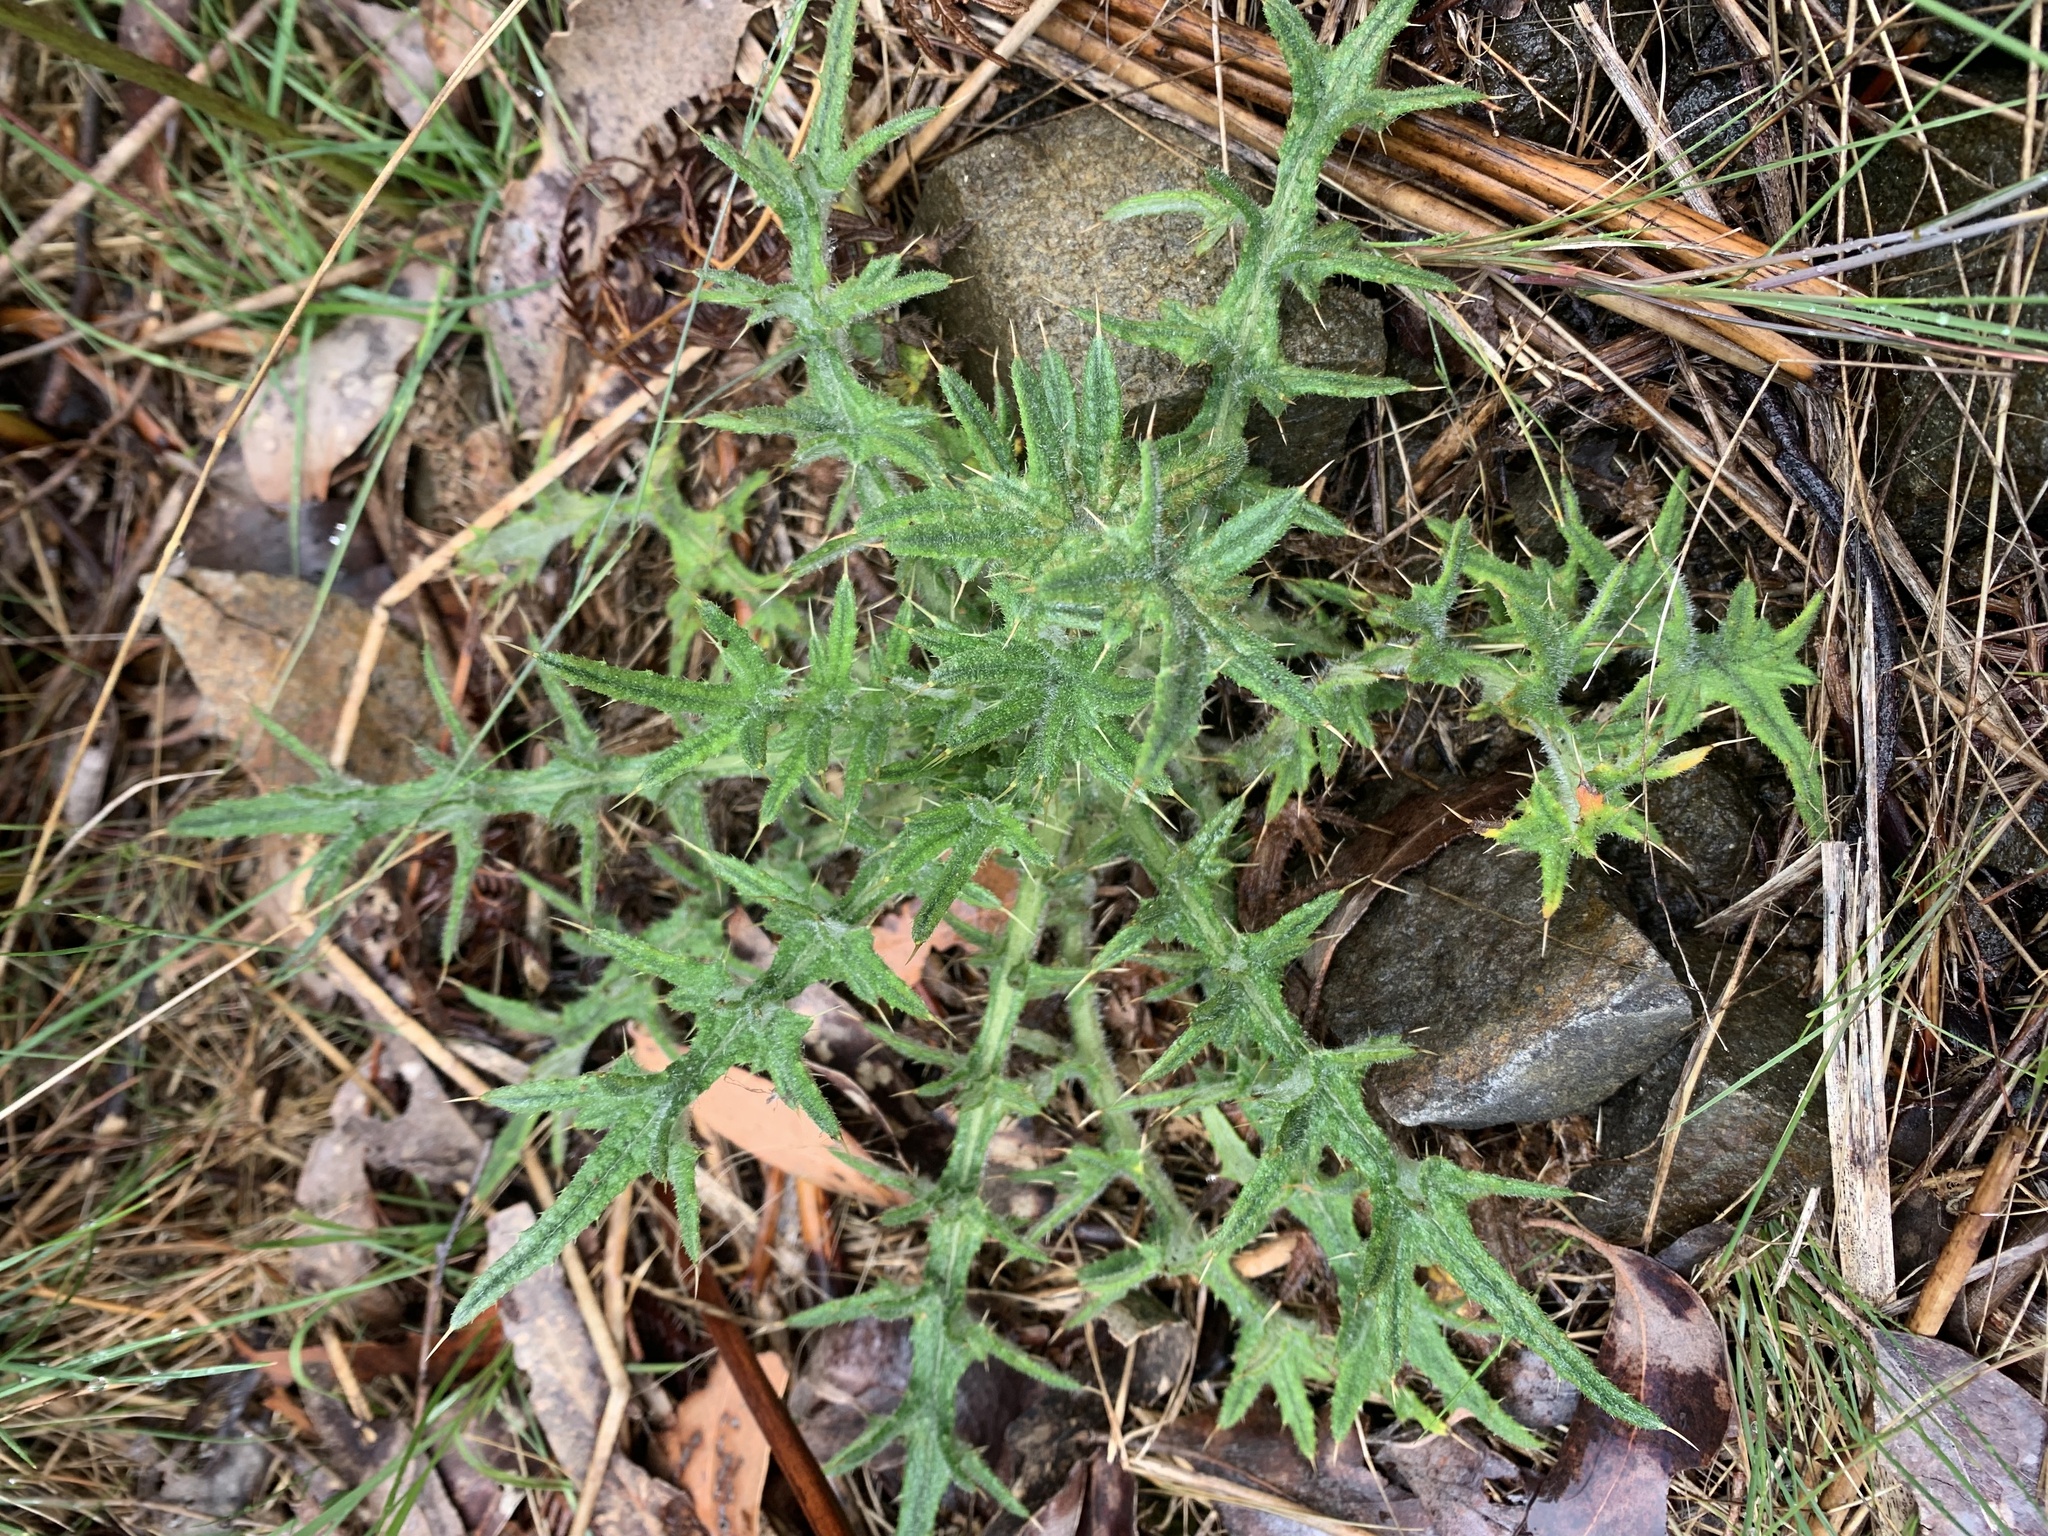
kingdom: Plantae
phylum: Tracheophyta
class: Magnoliopsida
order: Asterales
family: Asteraceae
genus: Cirsium
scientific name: Cirsium vulgare
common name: Bull thistle
